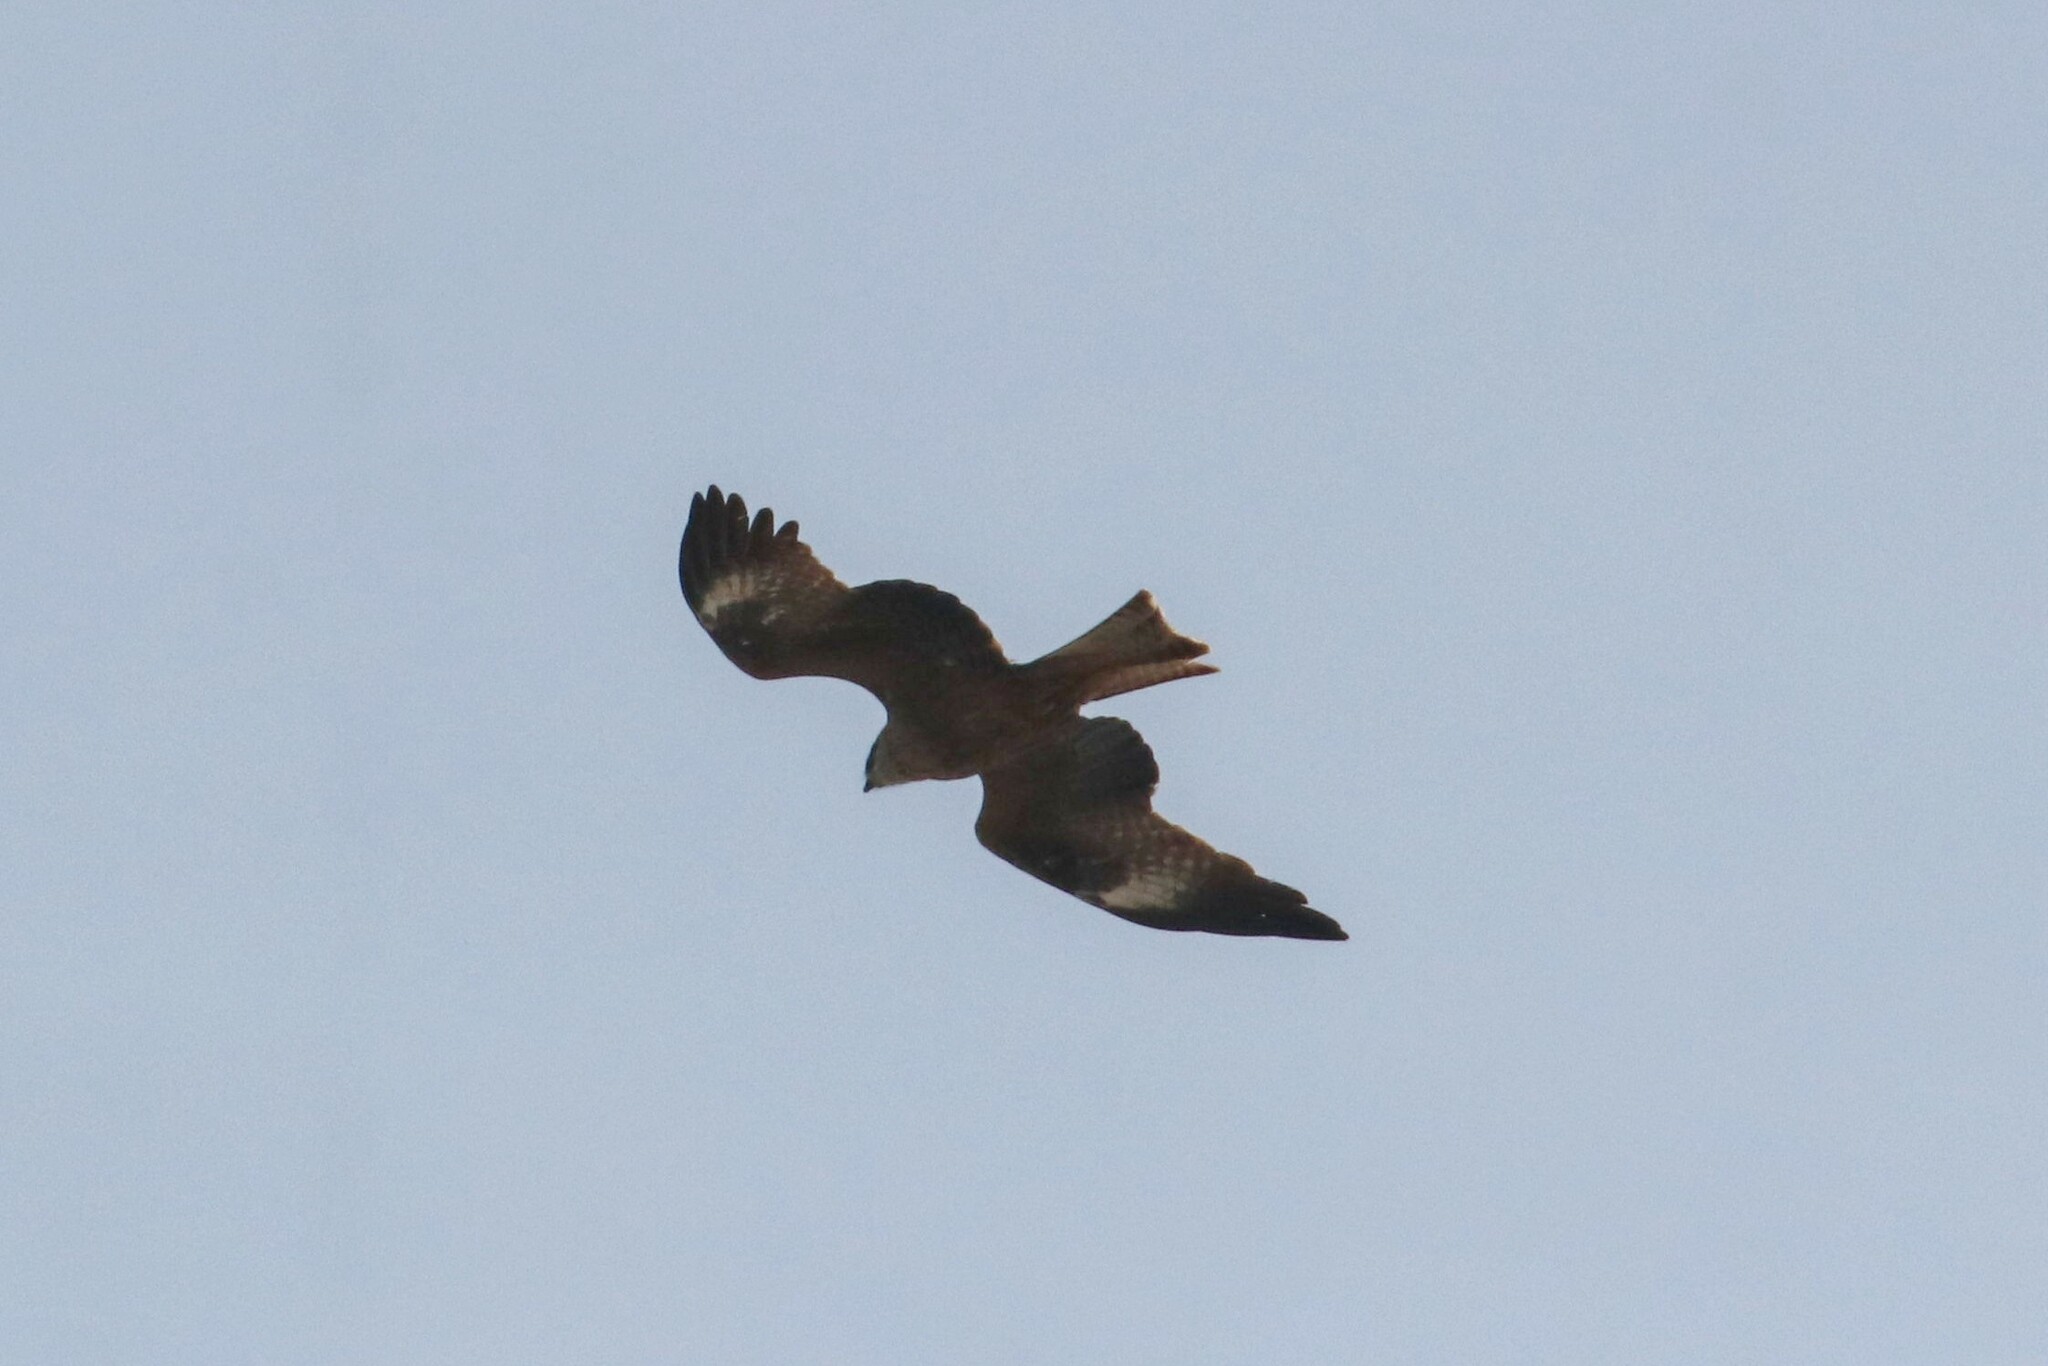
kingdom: Animalia
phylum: Chordata
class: Aves
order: Accipitriformes
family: Accipitridae
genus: Milvus
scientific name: Milvus migrans
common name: Black kite
